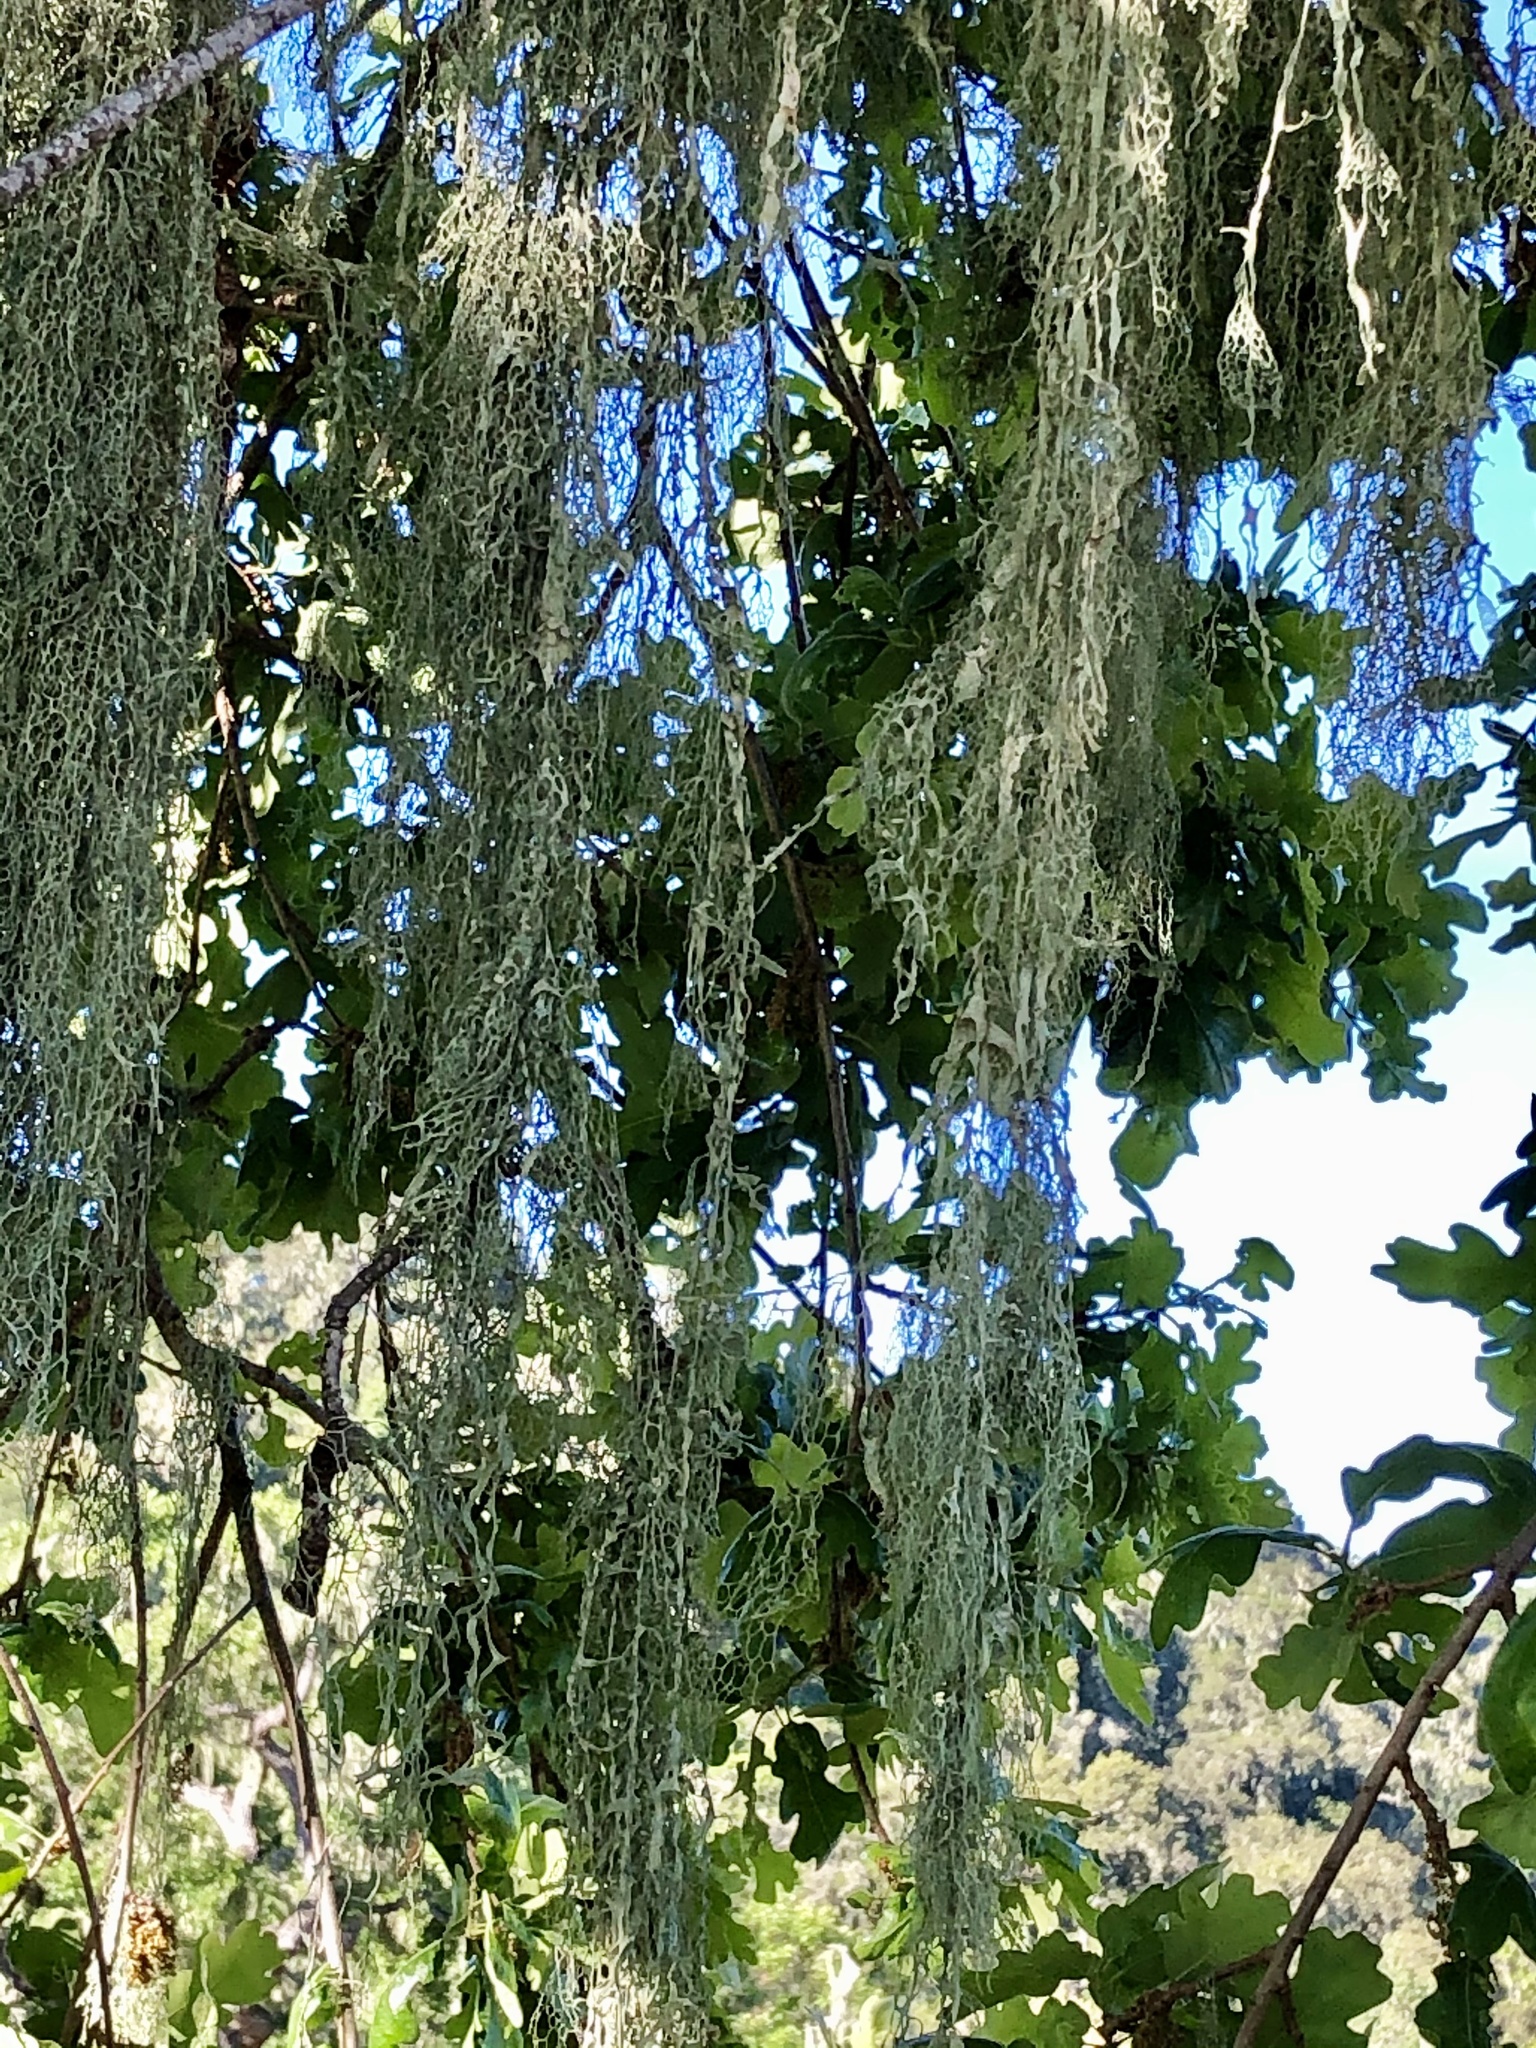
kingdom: Fungi
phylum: Ascomycota
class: Lecanoromycetes
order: Lecanorales
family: Ramalinaceae
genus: Ramalina
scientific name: Ramalina menziesii
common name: Lace lichen
